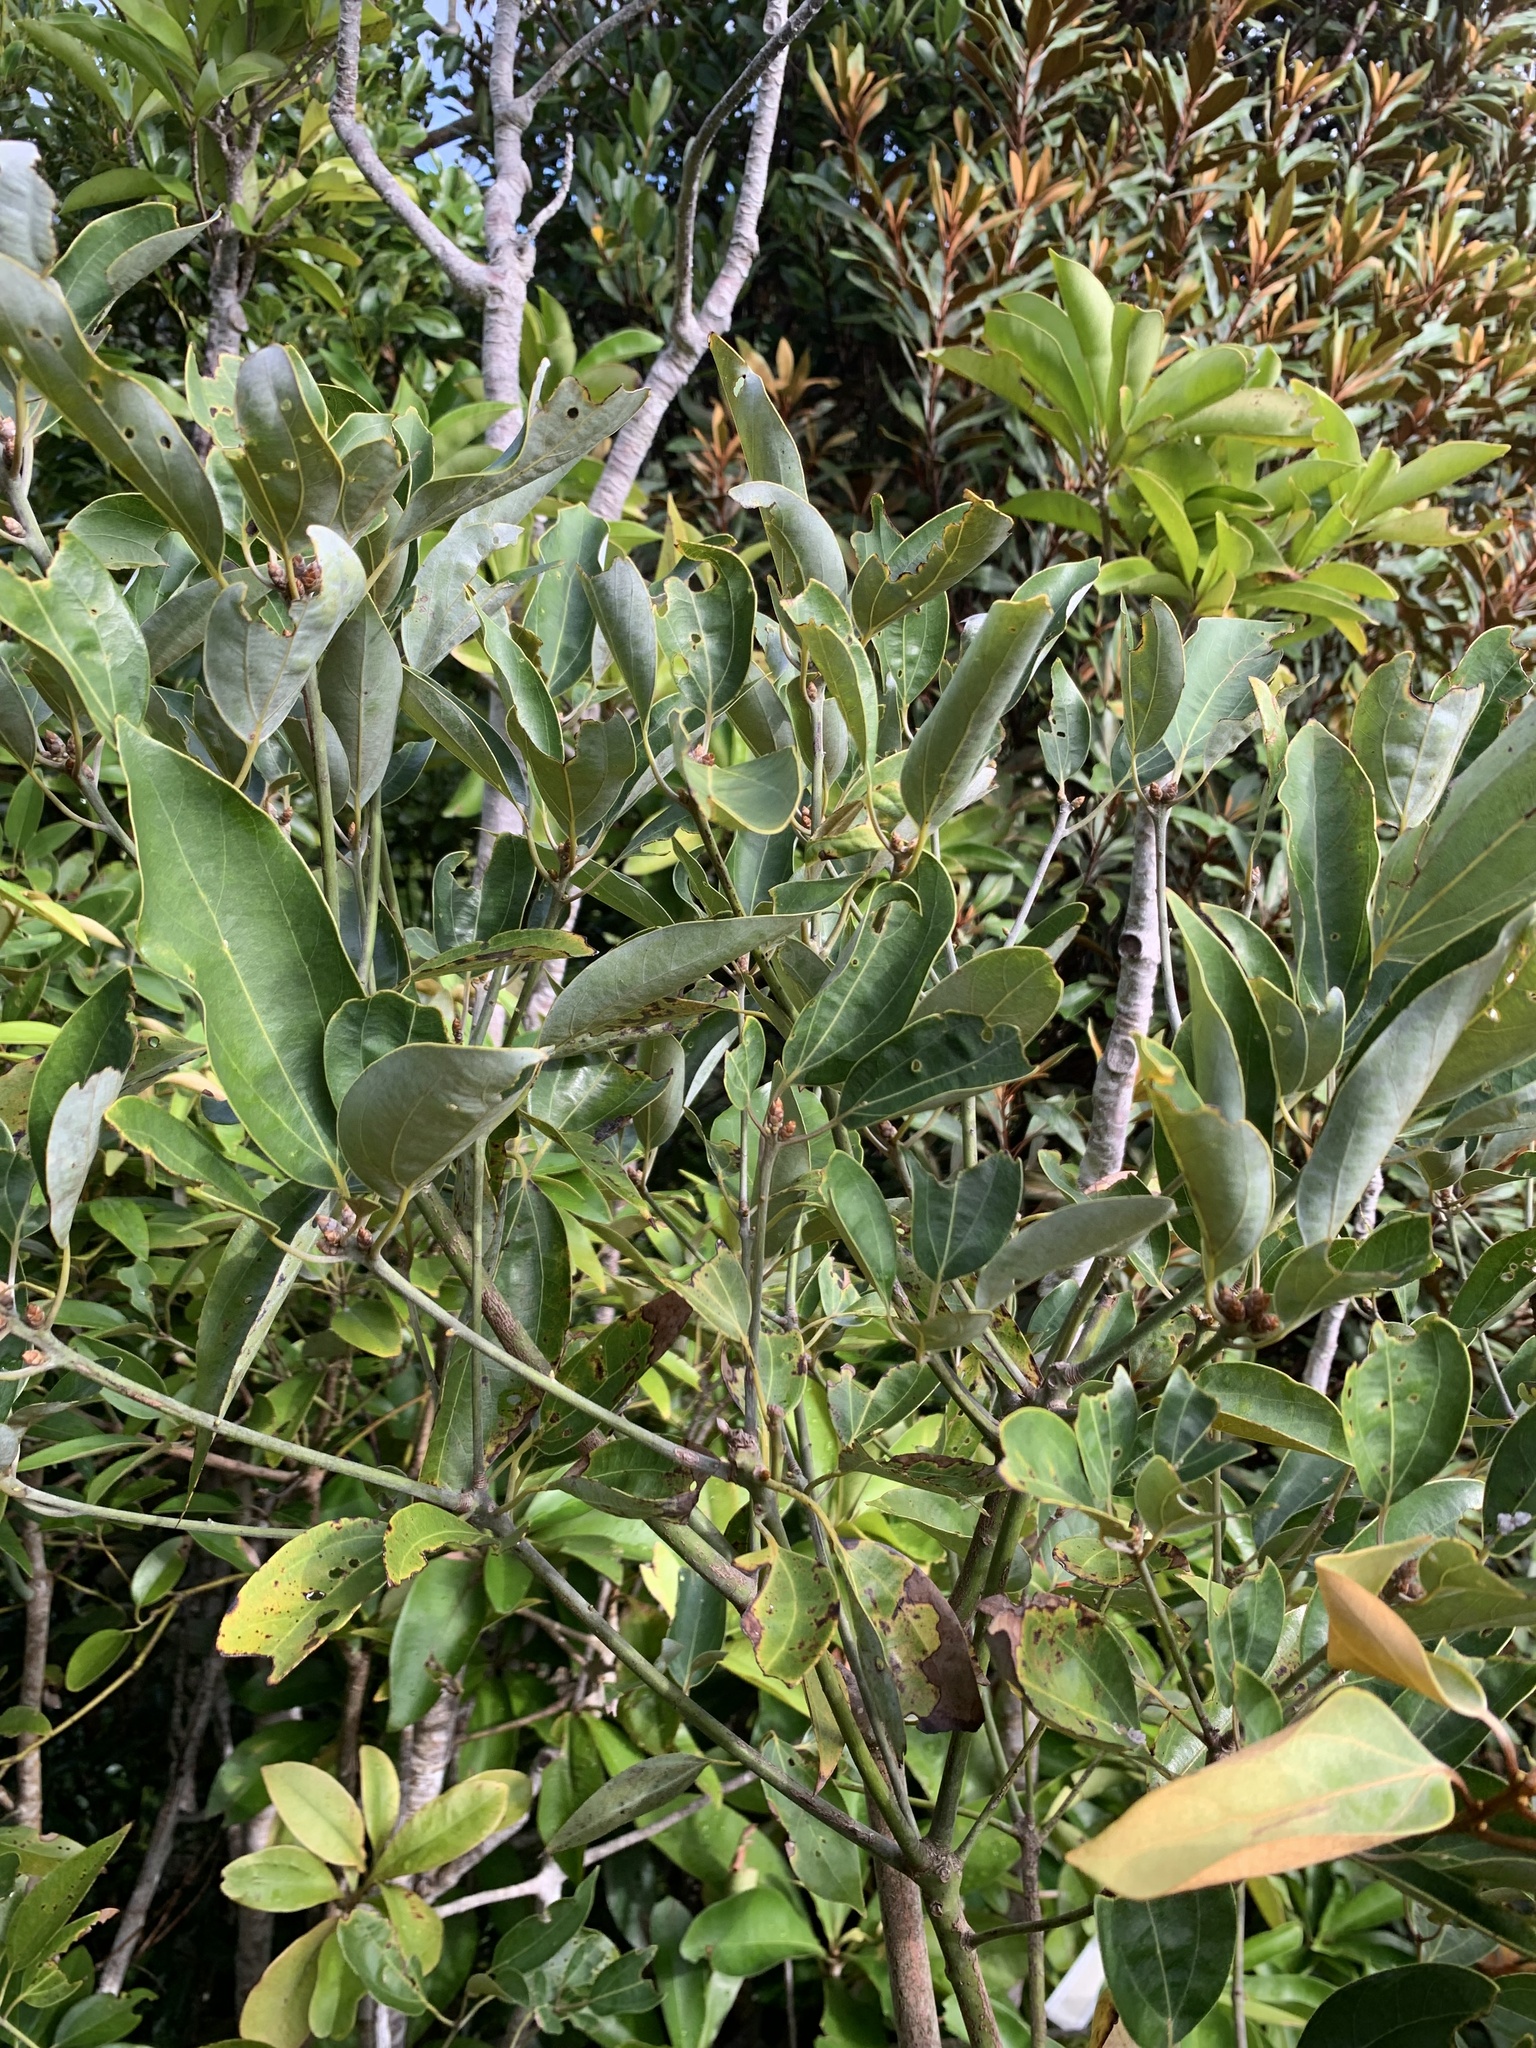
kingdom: Plantae
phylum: Tracheophyta
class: Magnoliopsida
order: Laurales
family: Lauraceae
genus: Neolitsea
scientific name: Neolitsea aurata
